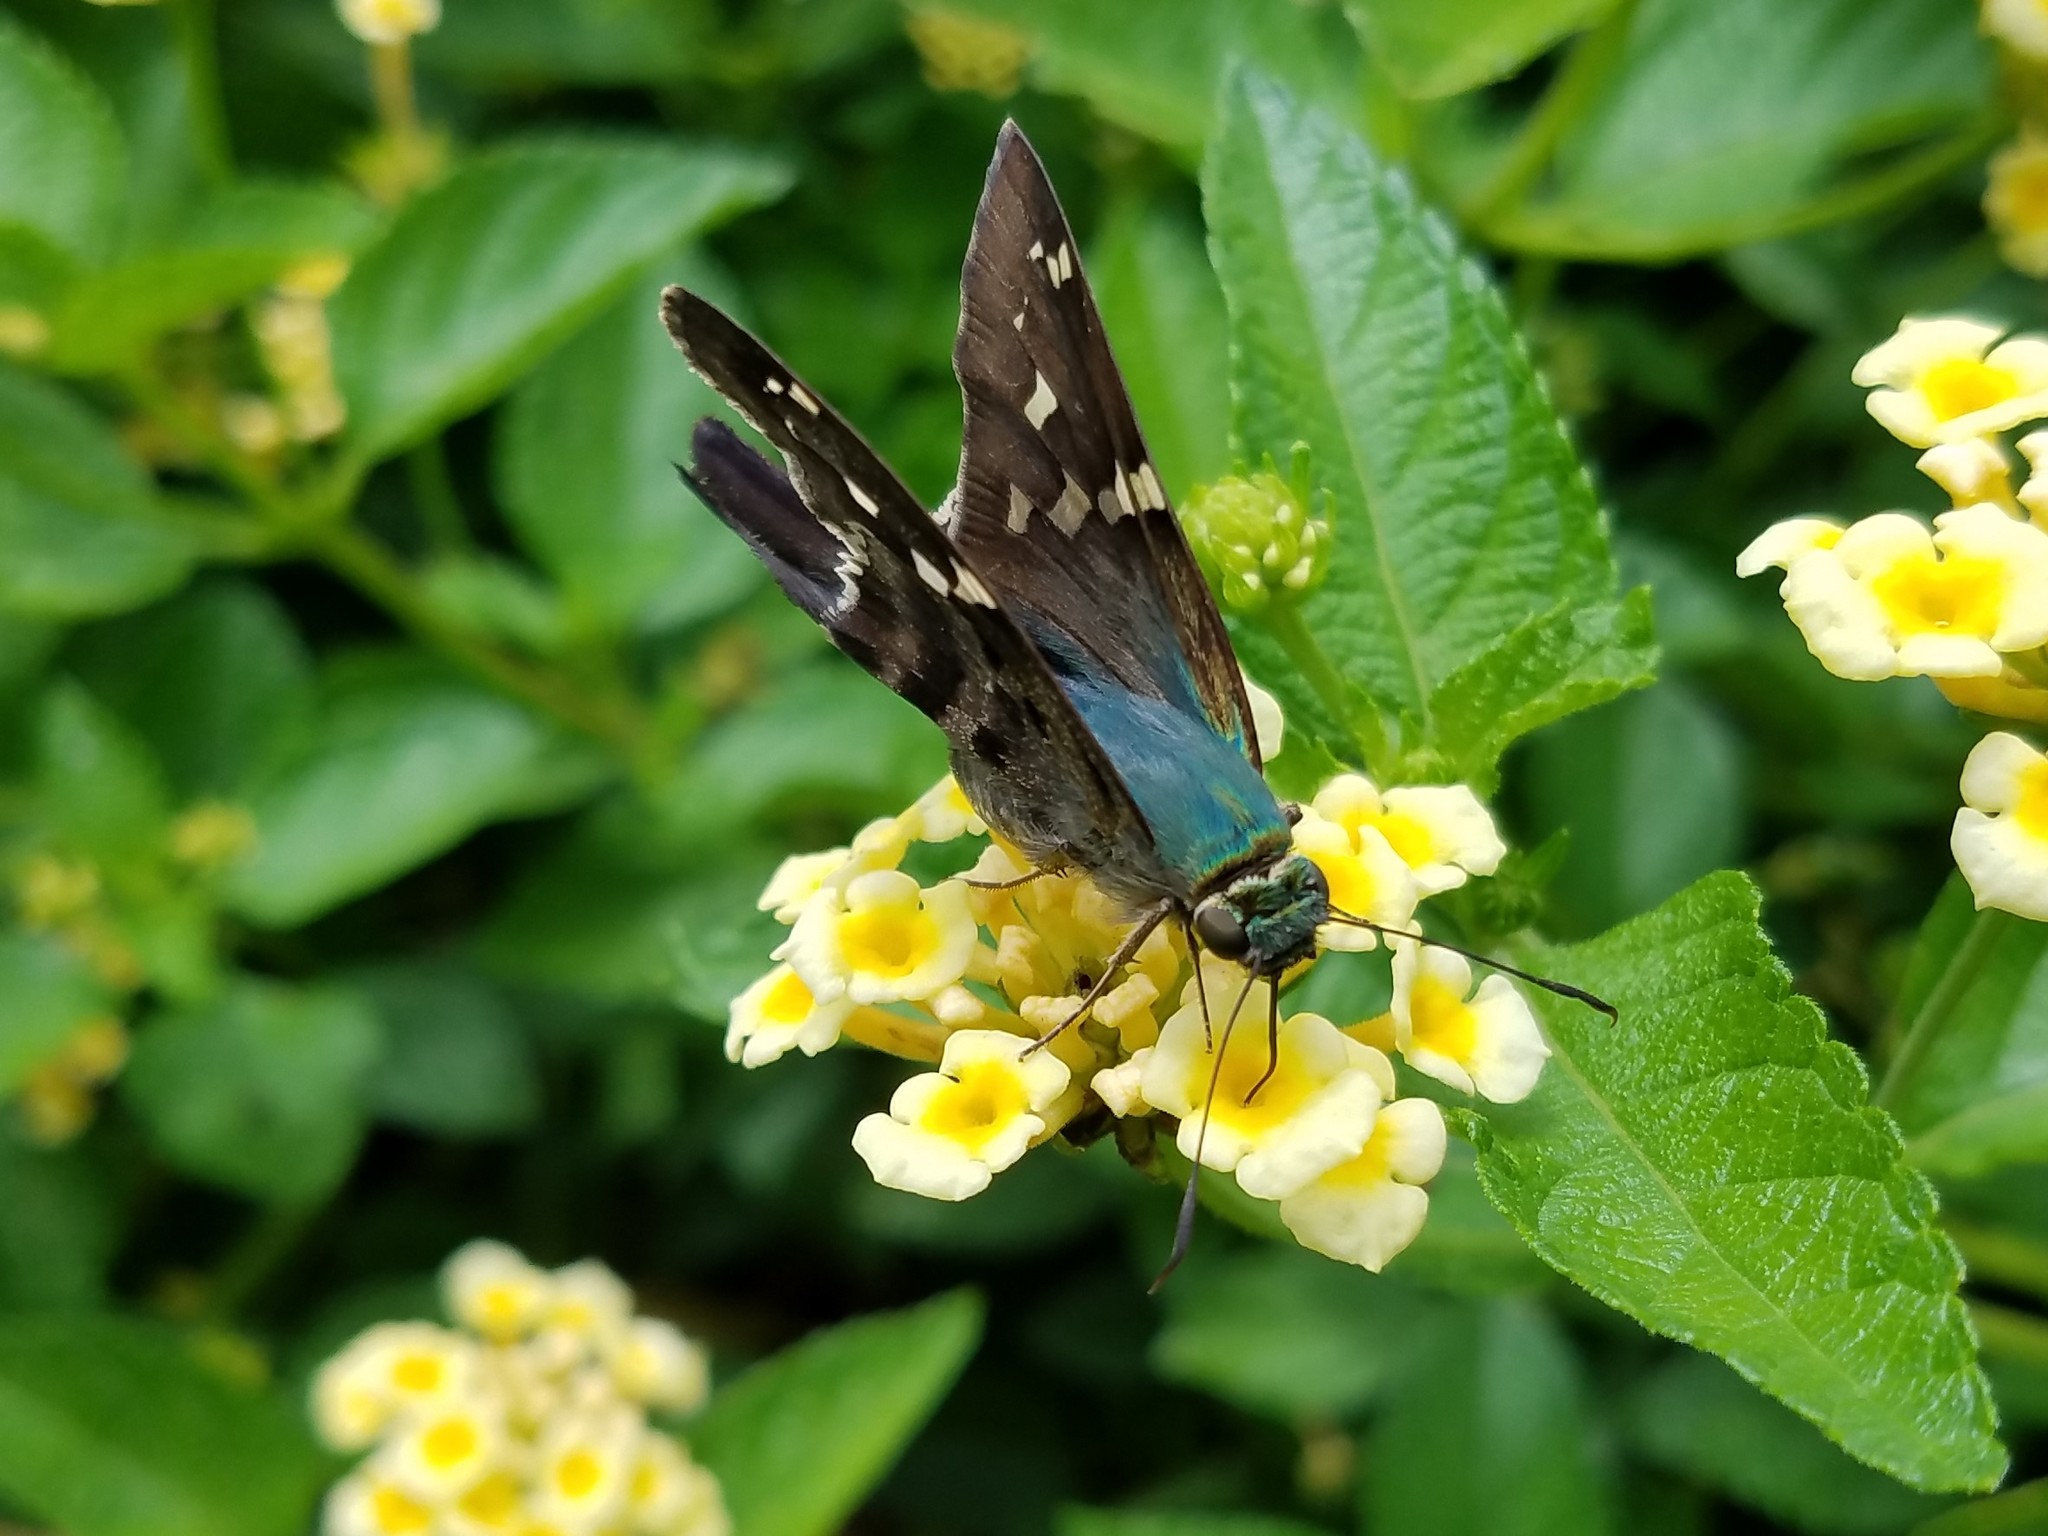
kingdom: Animalia
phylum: Arthropoda
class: Insecta
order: Lepidoptera
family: Hesperiidae
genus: Urbanus
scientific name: Urbanus proteus
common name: Long-tailed skipper
